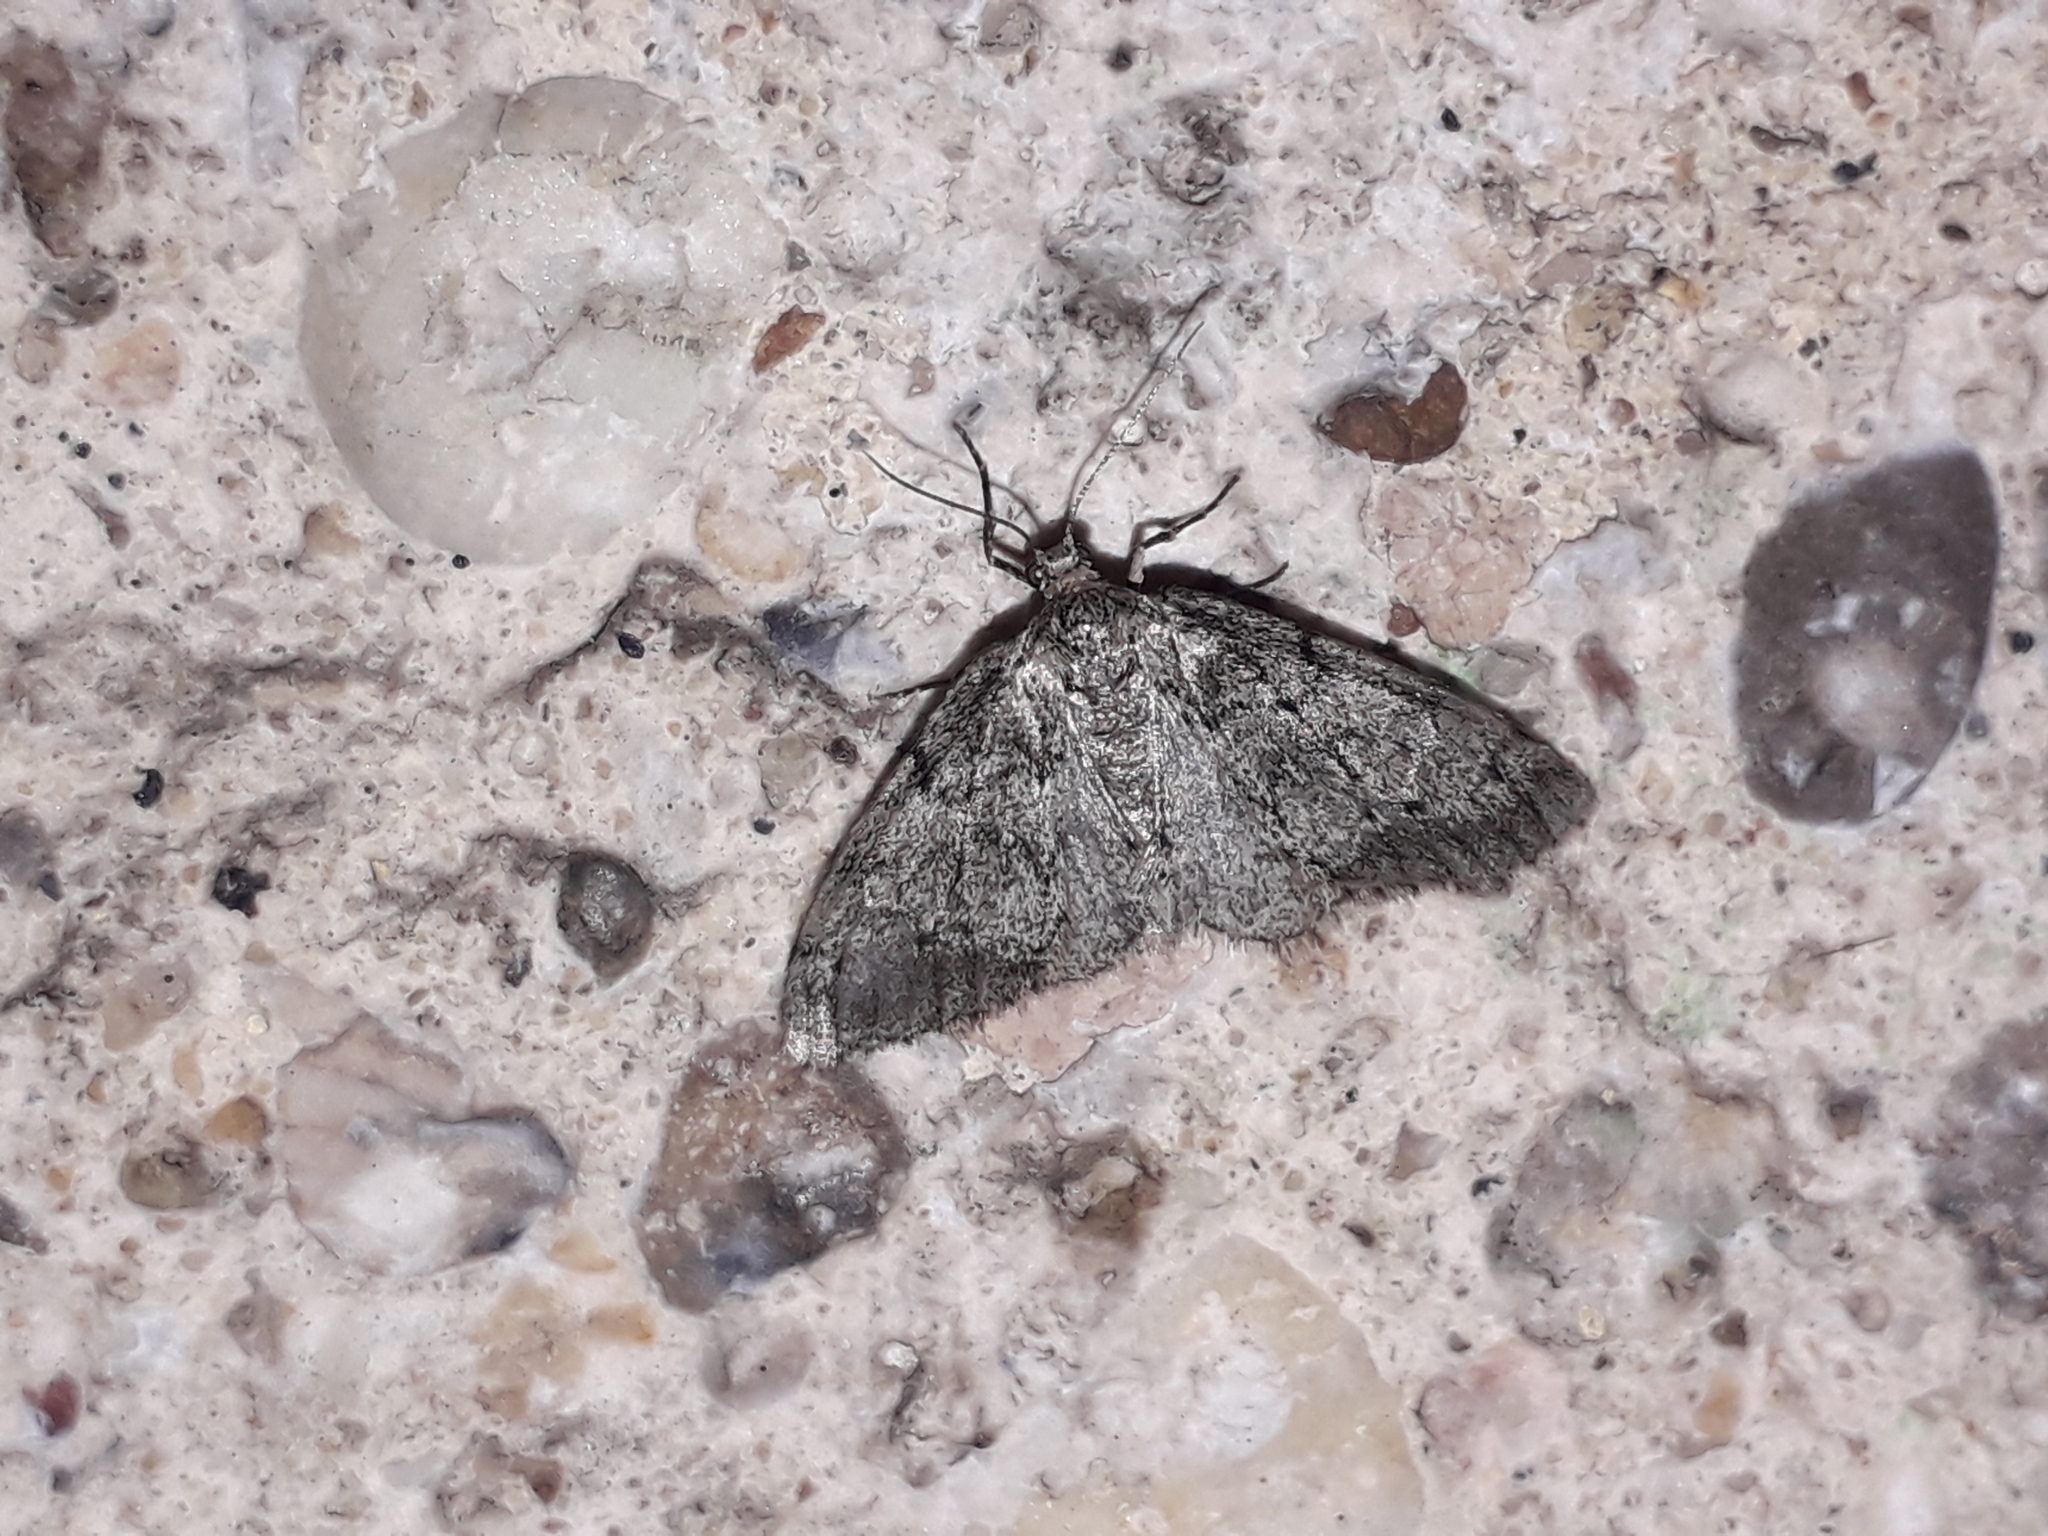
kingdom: Animalia
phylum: Arthropoda
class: Insecta
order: Lepidoptera
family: Geometridae
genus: Tephronia
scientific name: Tephronia sepiaria
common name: Dusky carpet
